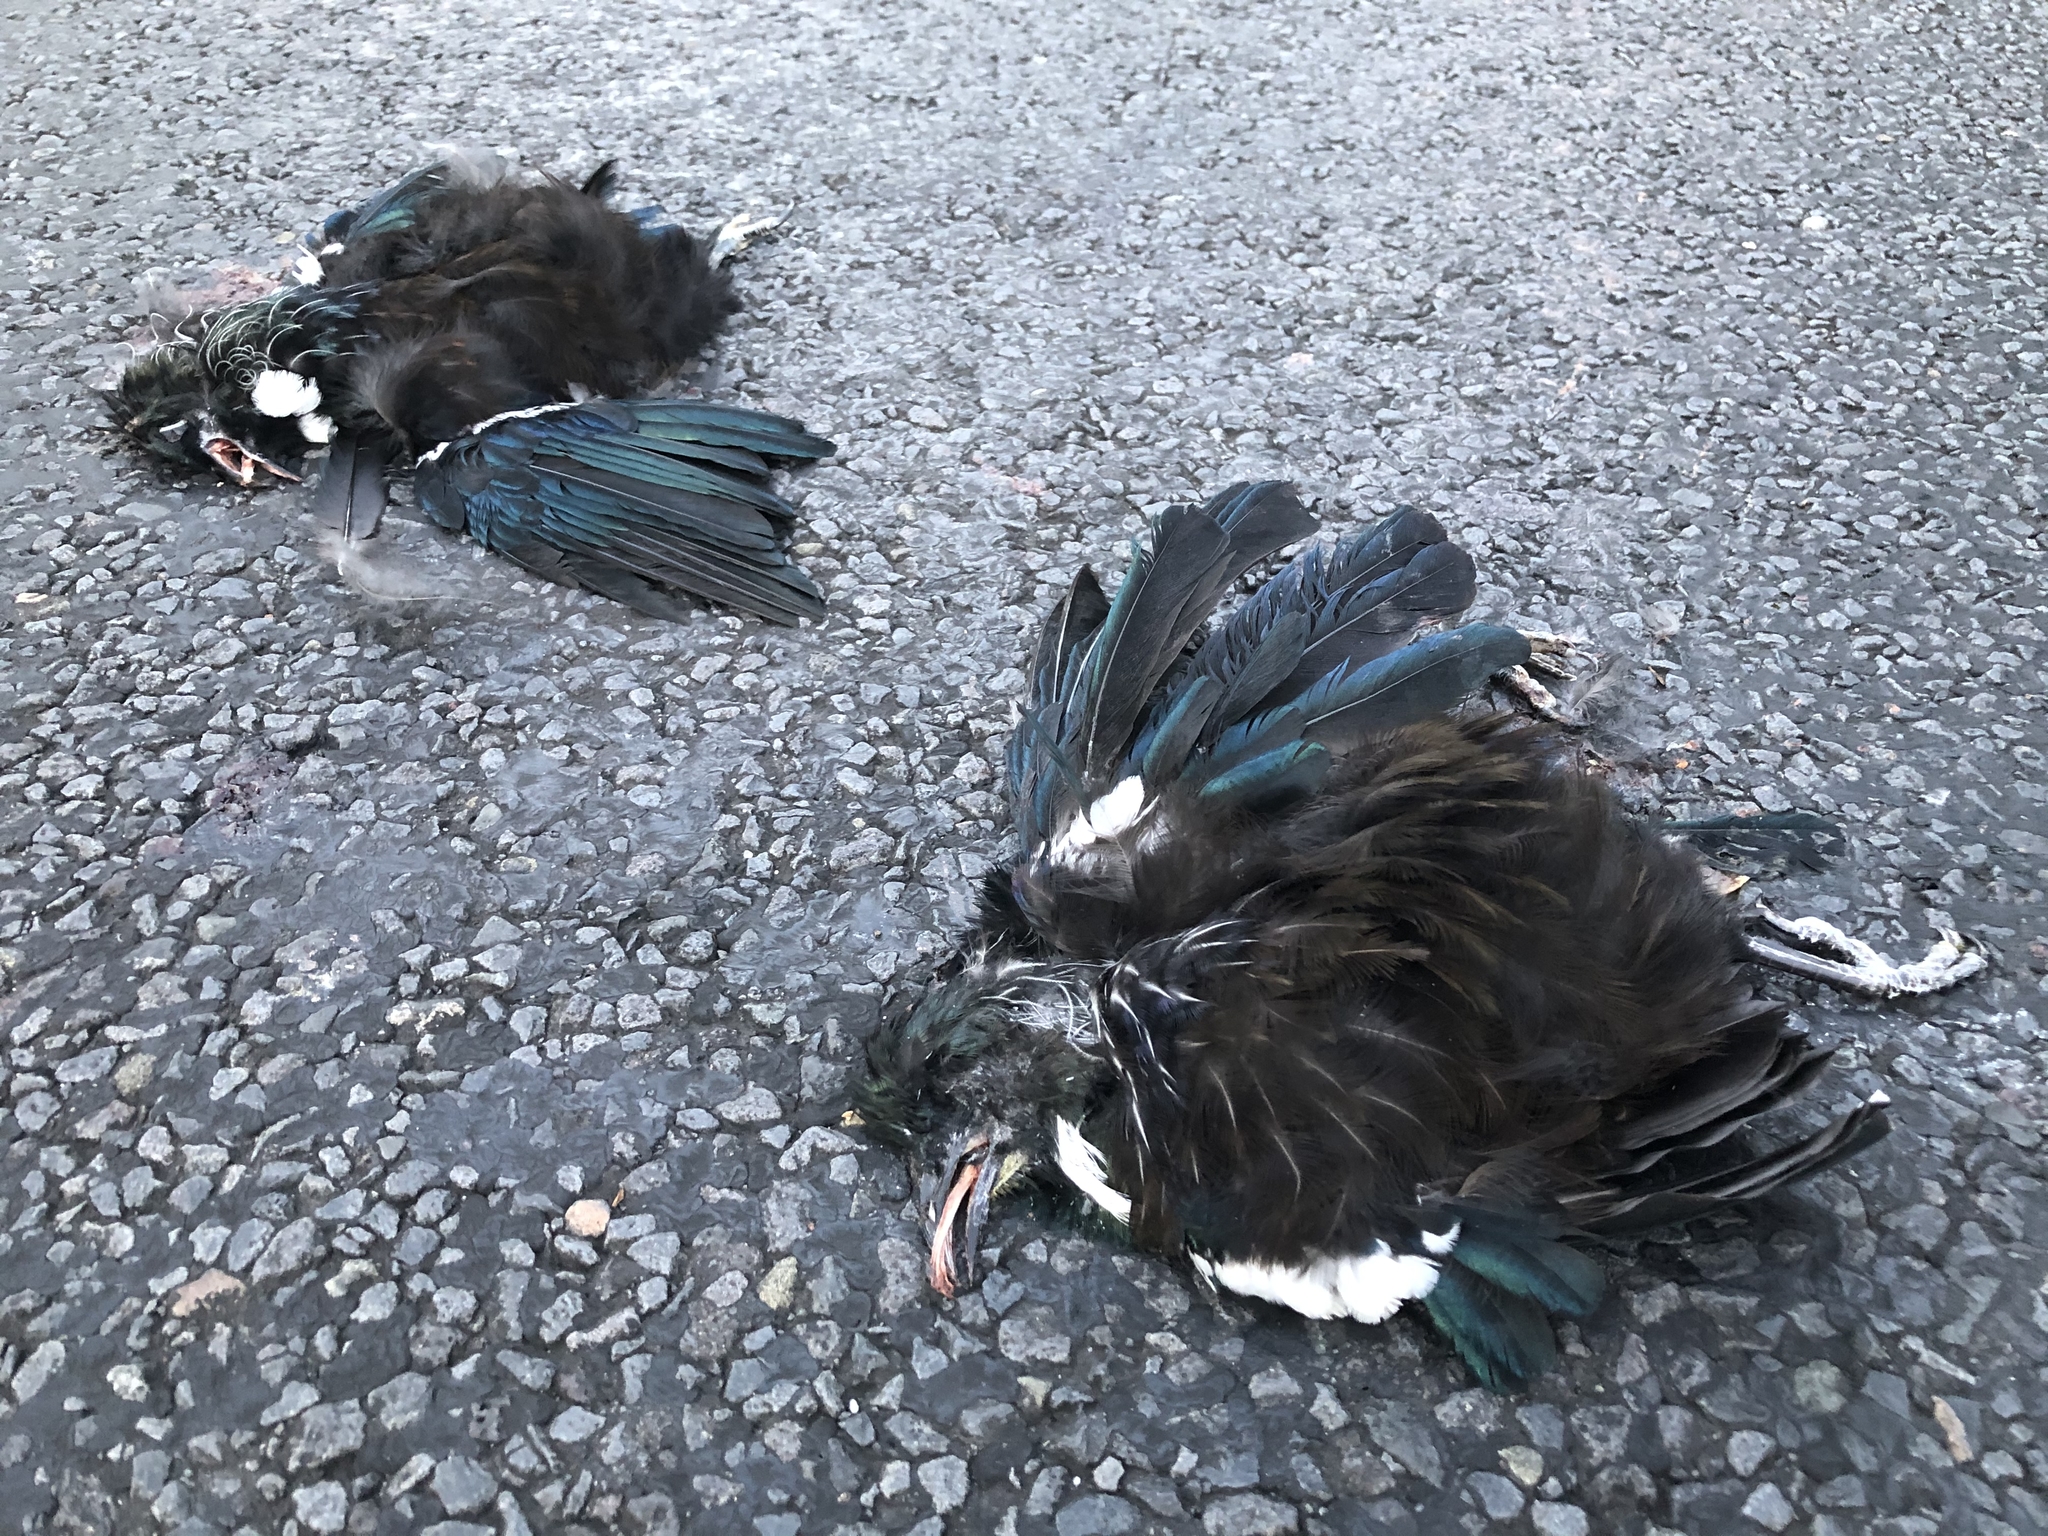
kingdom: Animalia
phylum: Chordata
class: Aves
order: Passeriformes
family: Meliphagidae
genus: Prosthemadera
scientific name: Prosthemadera novaeseelandiae
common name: Tui
